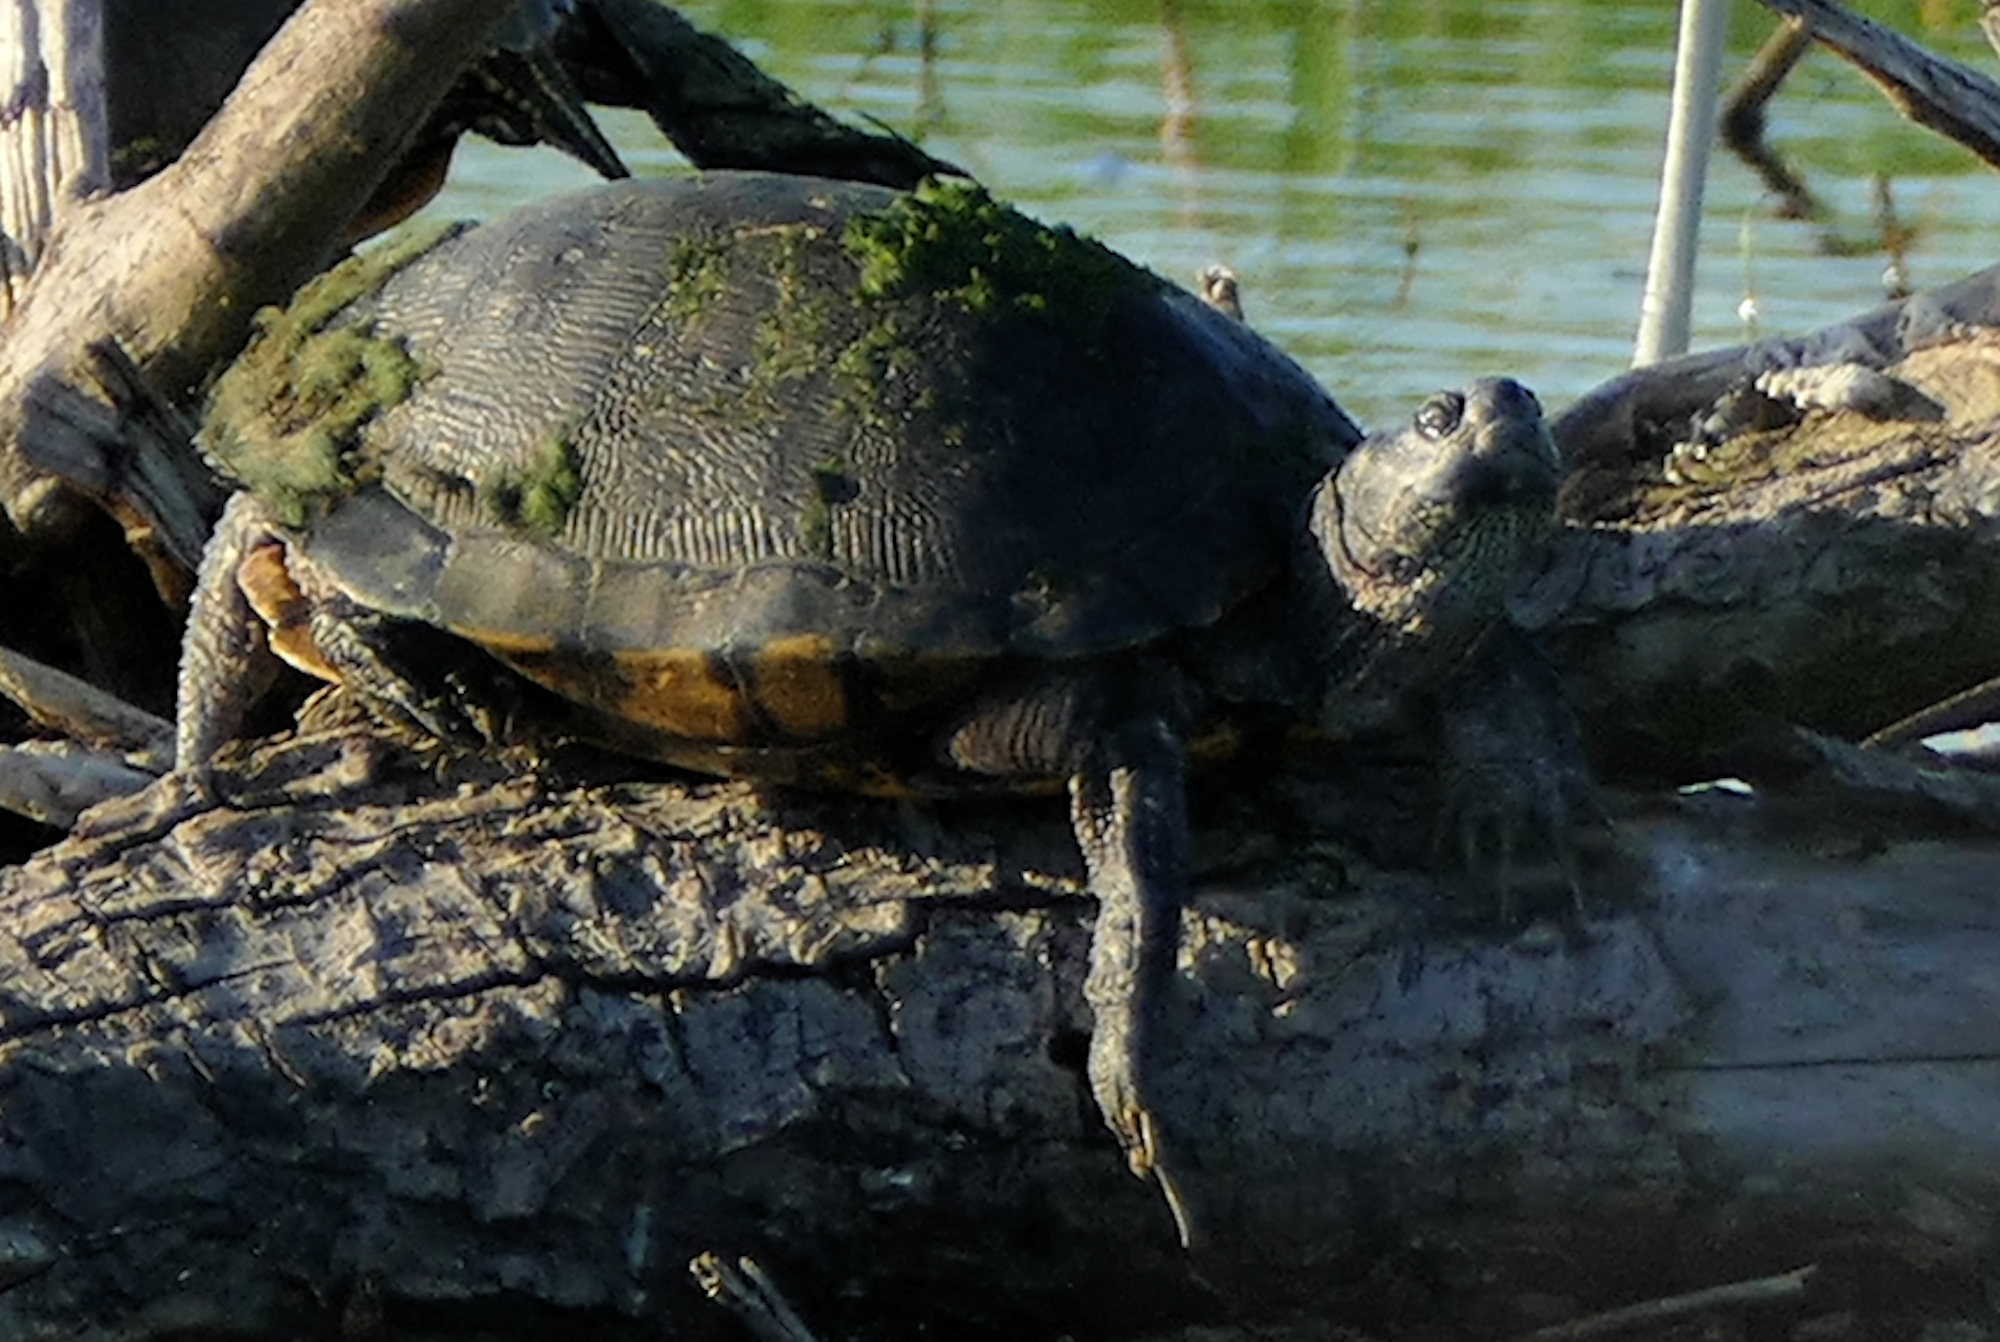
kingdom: Animalia
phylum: Chordata
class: Testudines
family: Emydidae
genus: Trachemys
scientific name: Trachemys scripta
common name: Slider
